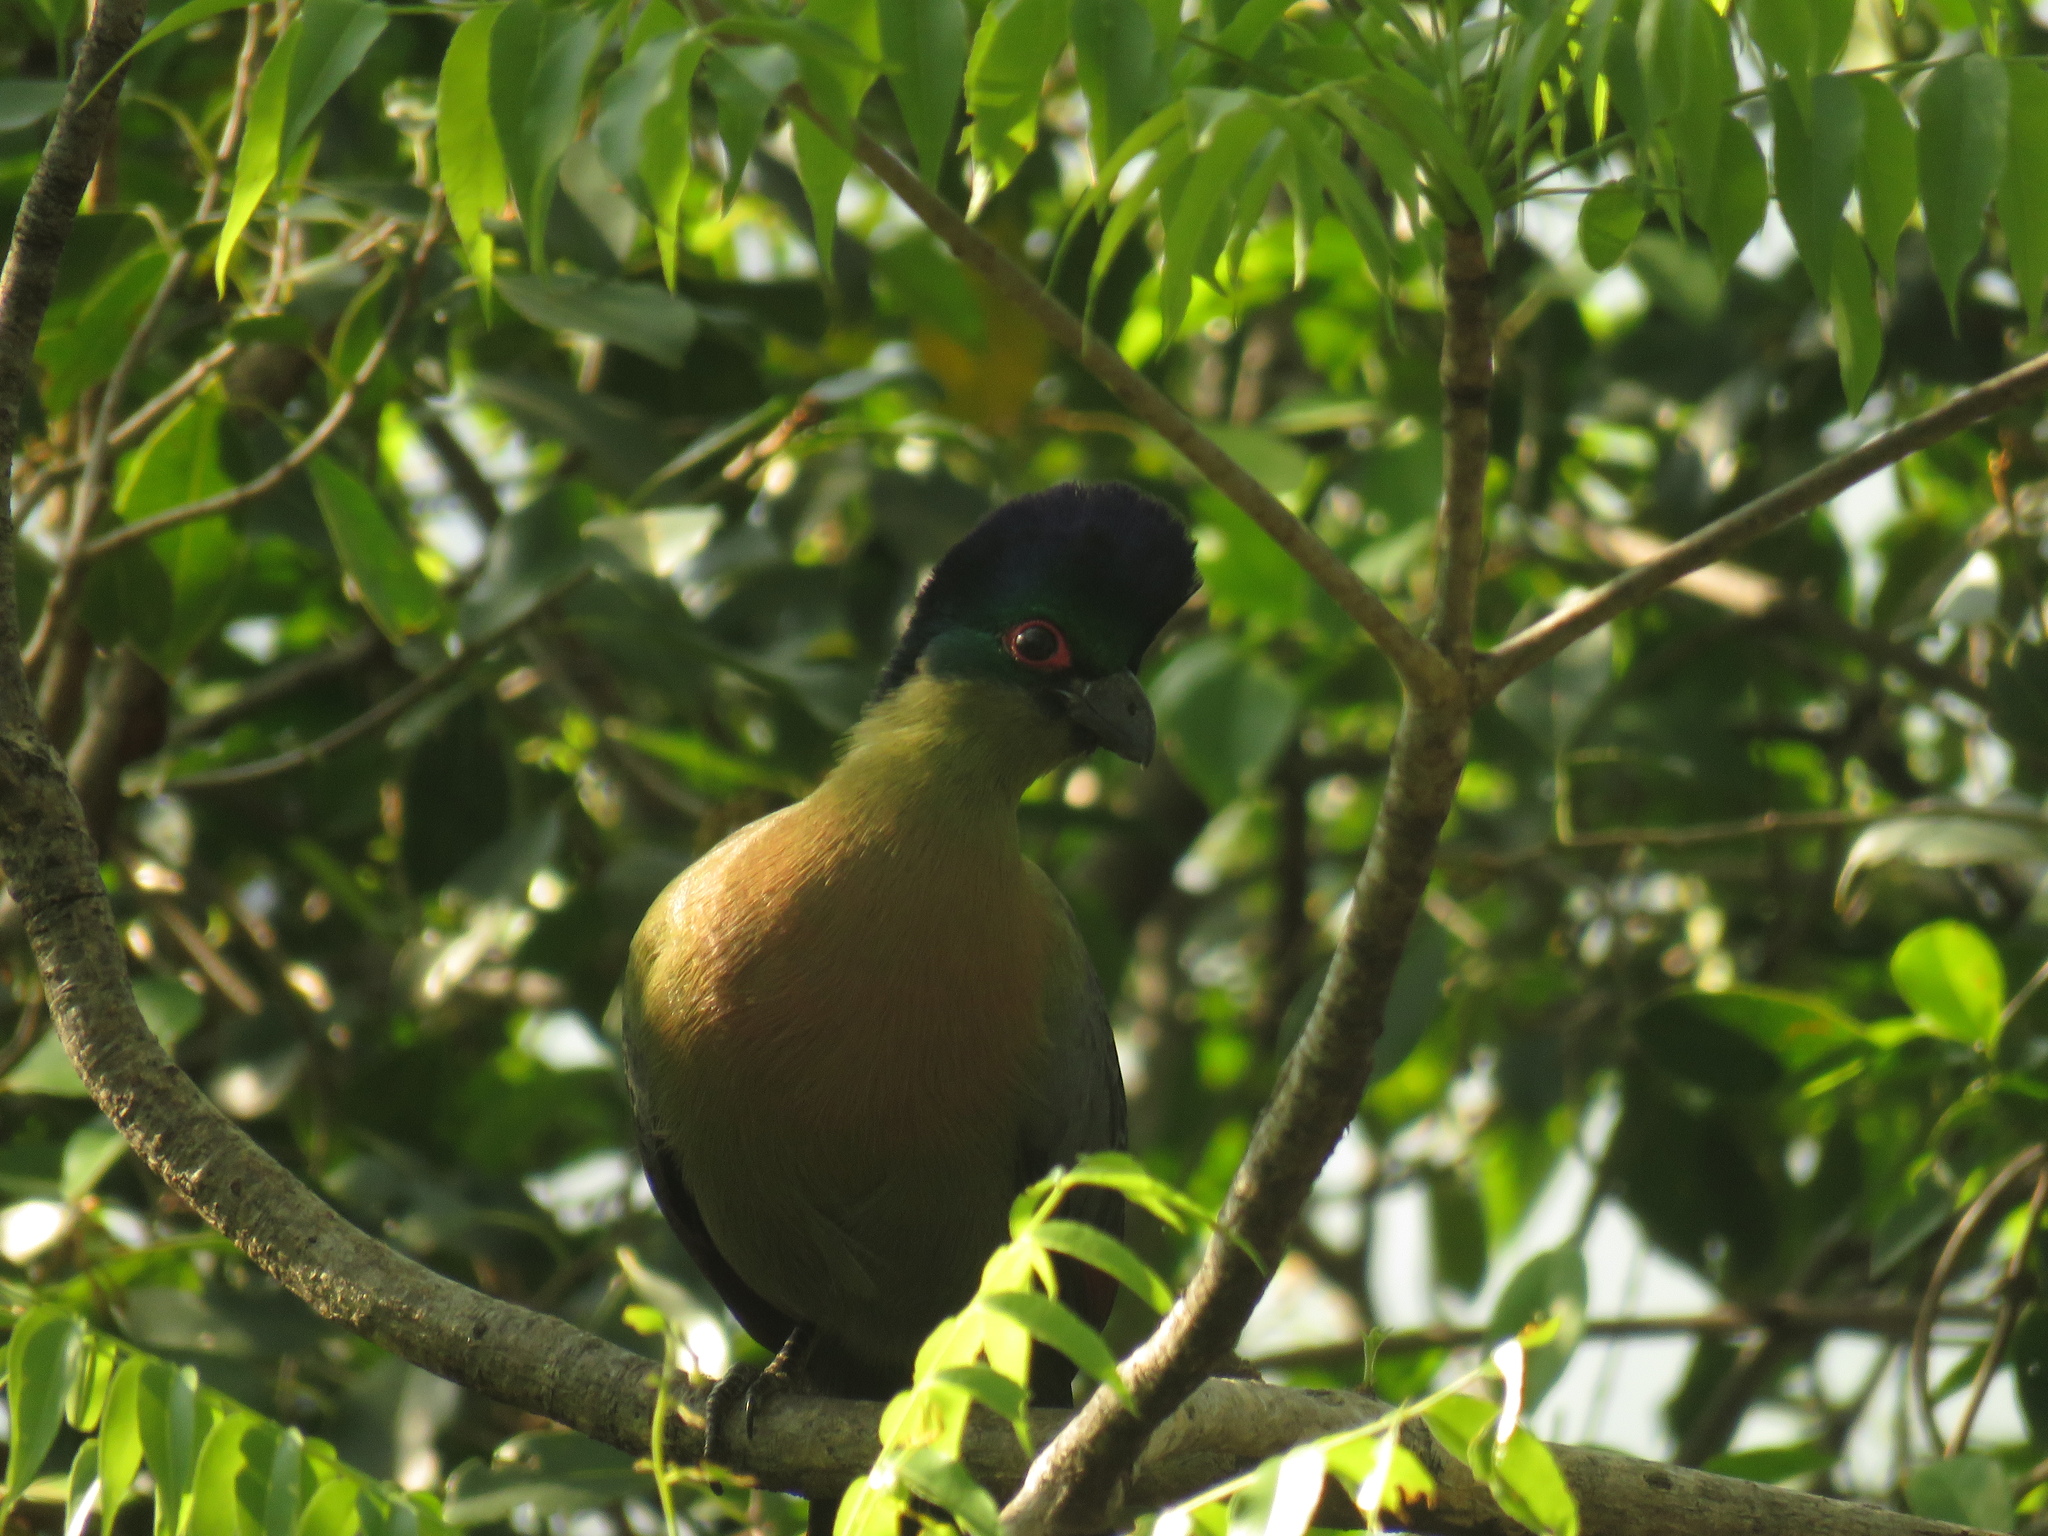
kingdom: Animalia
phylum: Chordata
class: Aves
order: Musophagiformes
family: Musophagidae
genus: Tauraco
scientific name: Tauraco porphyreolophus
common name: Purple-crested turaco
